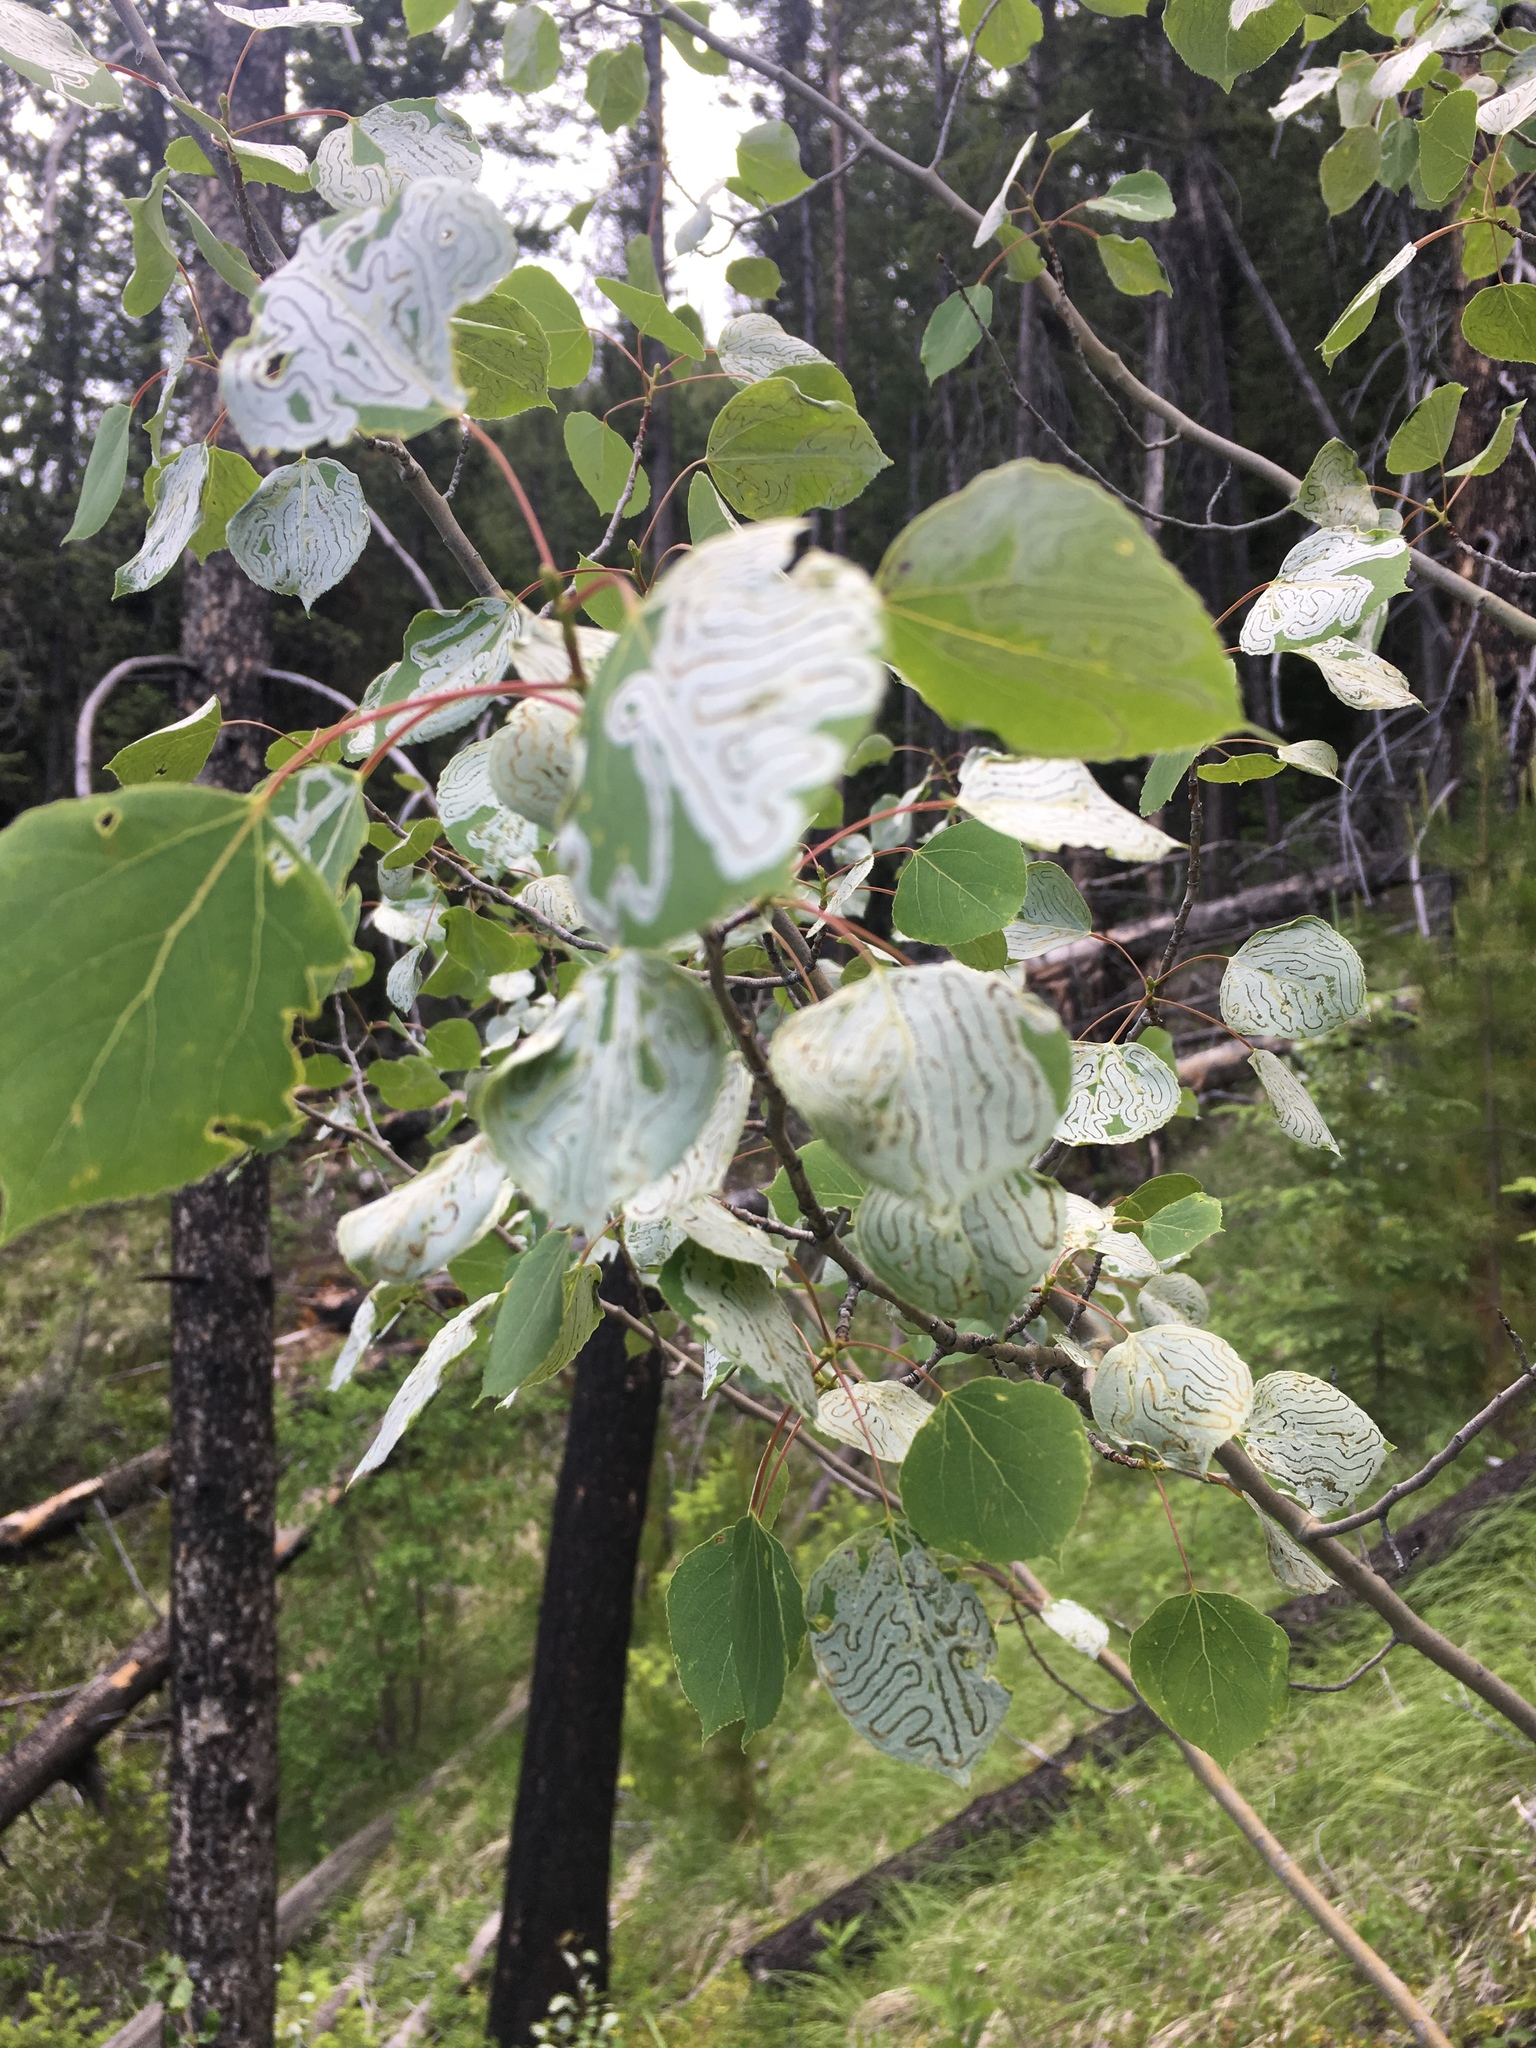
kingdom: Animalia
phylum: Arthropoda
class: Insecta
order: Lepidoptera
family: Gracillariidae
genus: Phyllocnistis
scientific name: Phyllocnistis populiella
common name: Aspen serpentine leafminer moth
